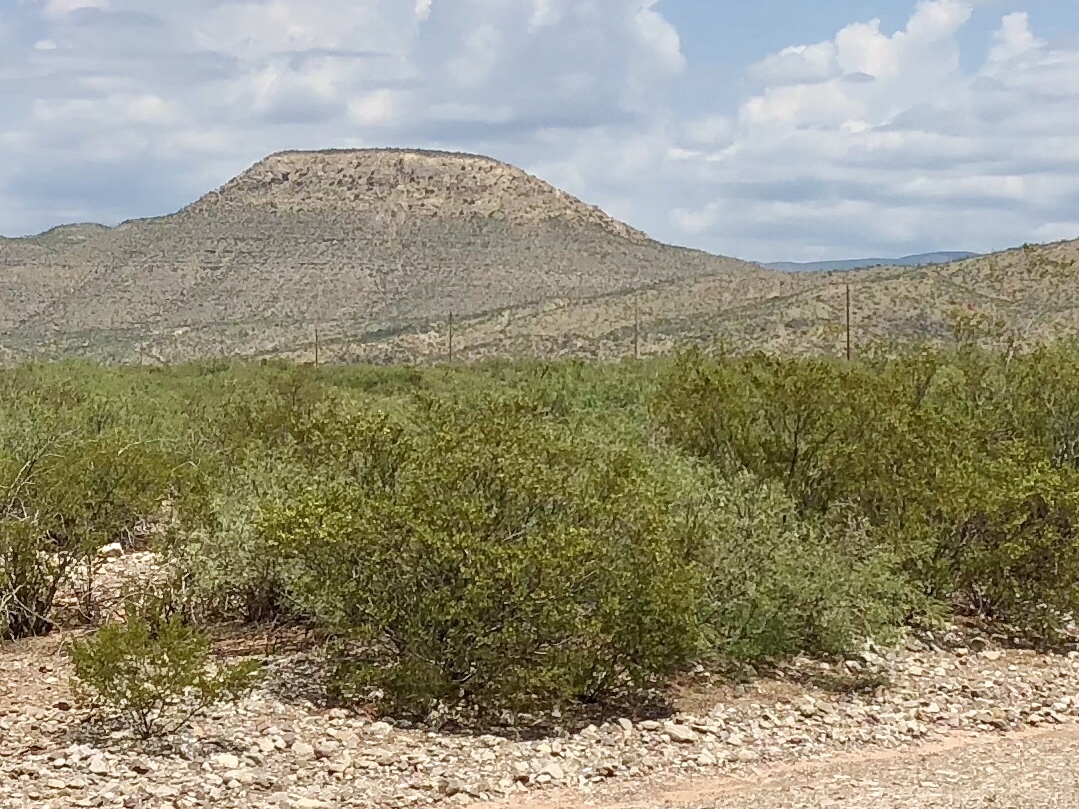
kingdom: Plantae
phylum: Tracheophyta
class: Magnoliopsida
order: Zygophyllales
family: Zygophyllaceae
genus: Larrea
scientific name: Larrea tridentata
